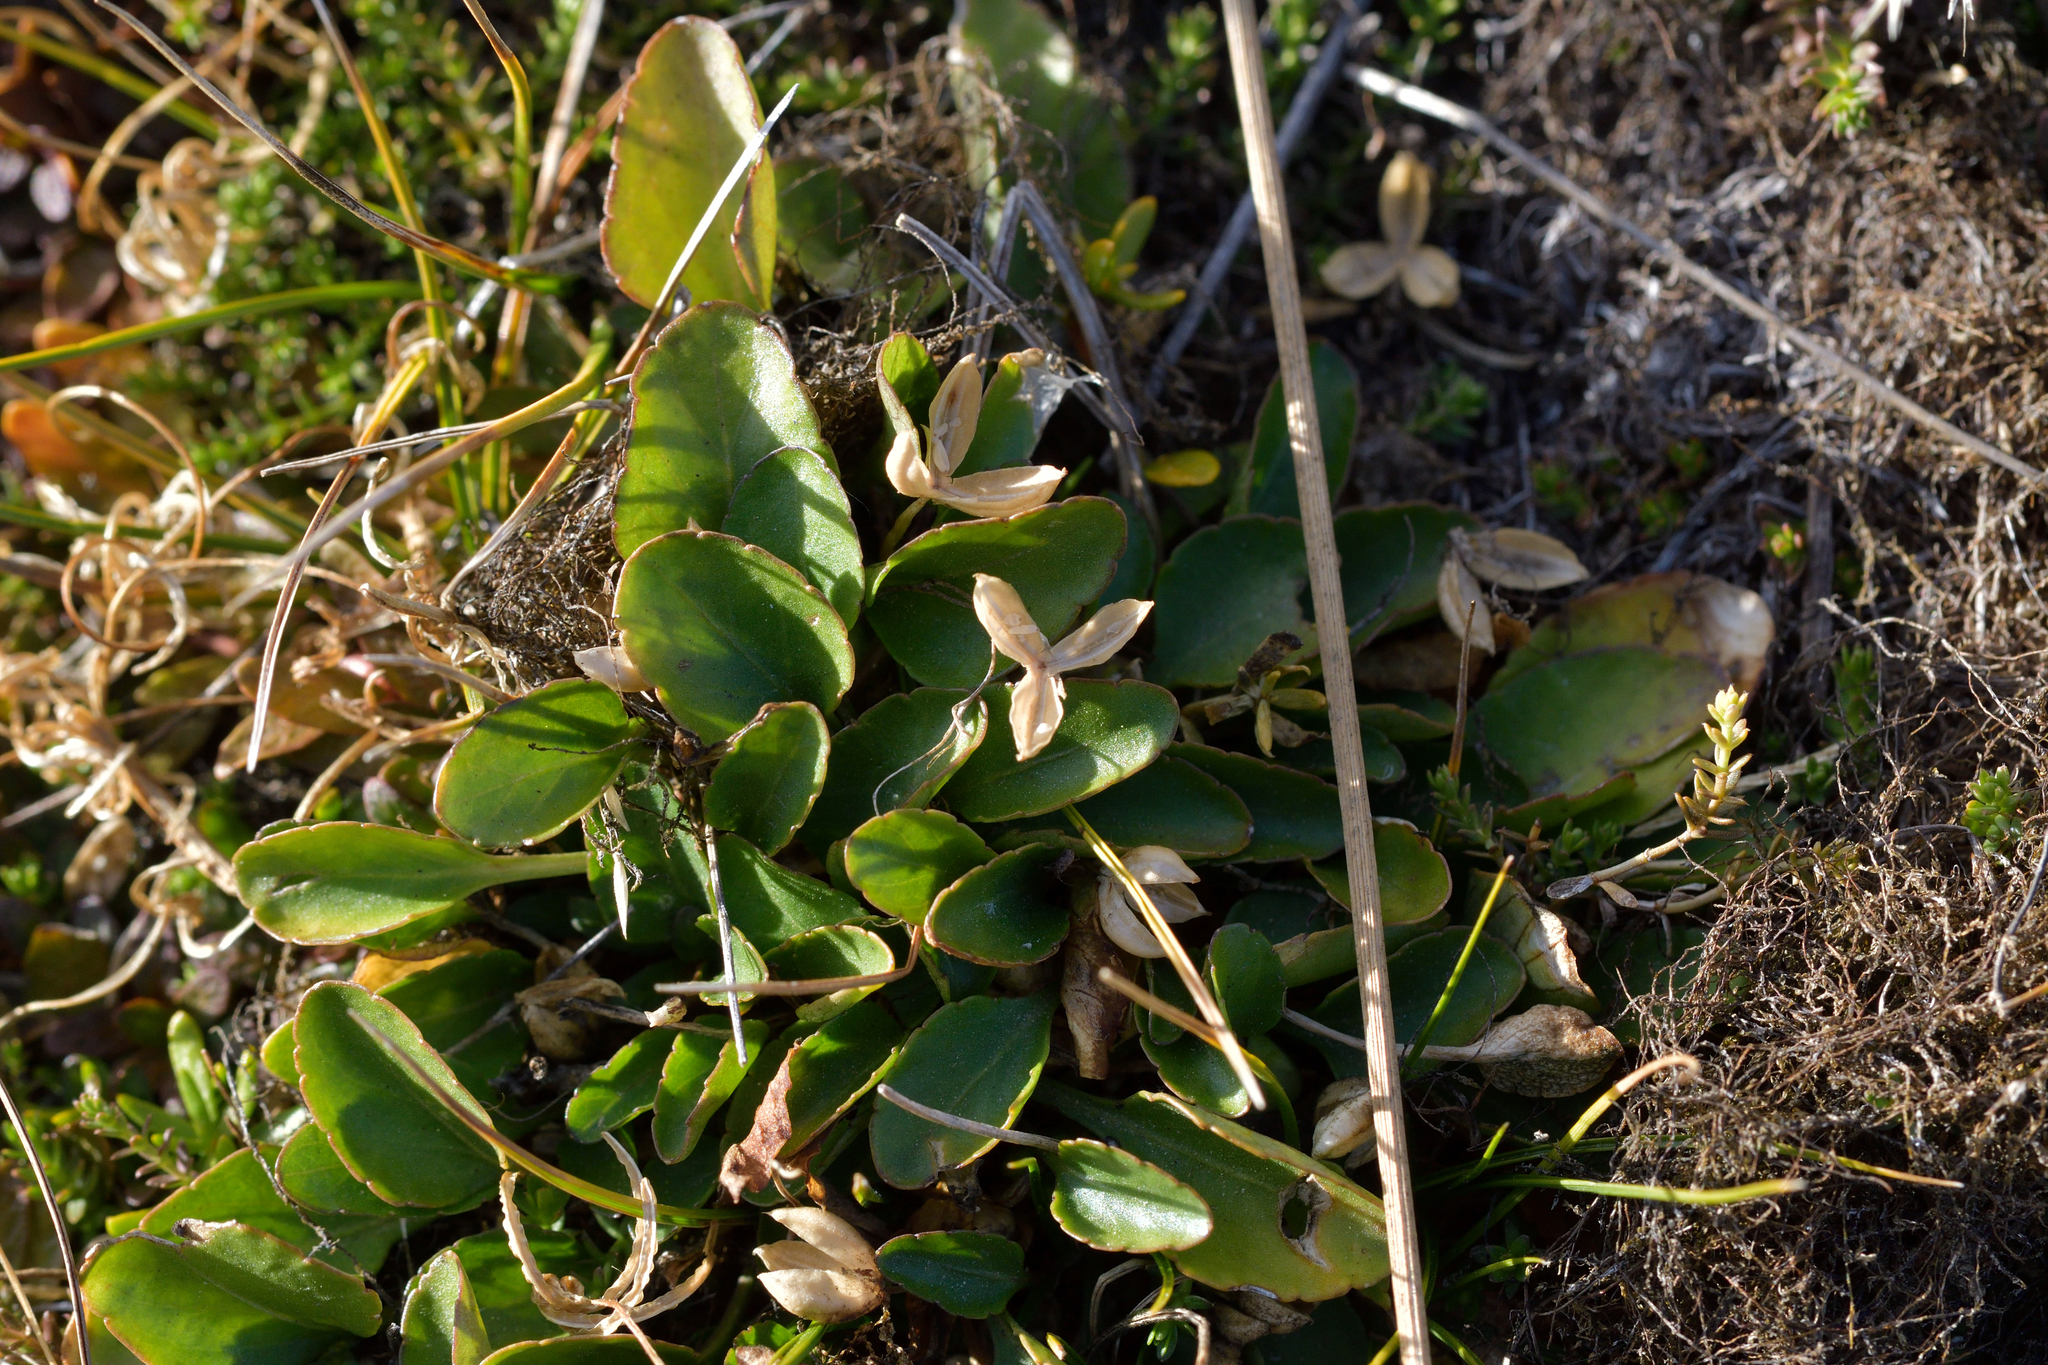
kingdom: Plantae
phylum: Tracheophyta
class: Magnoliopsida
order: Malpighiales
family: Violaceae
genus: Viola
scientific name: Viola cunninghamii
